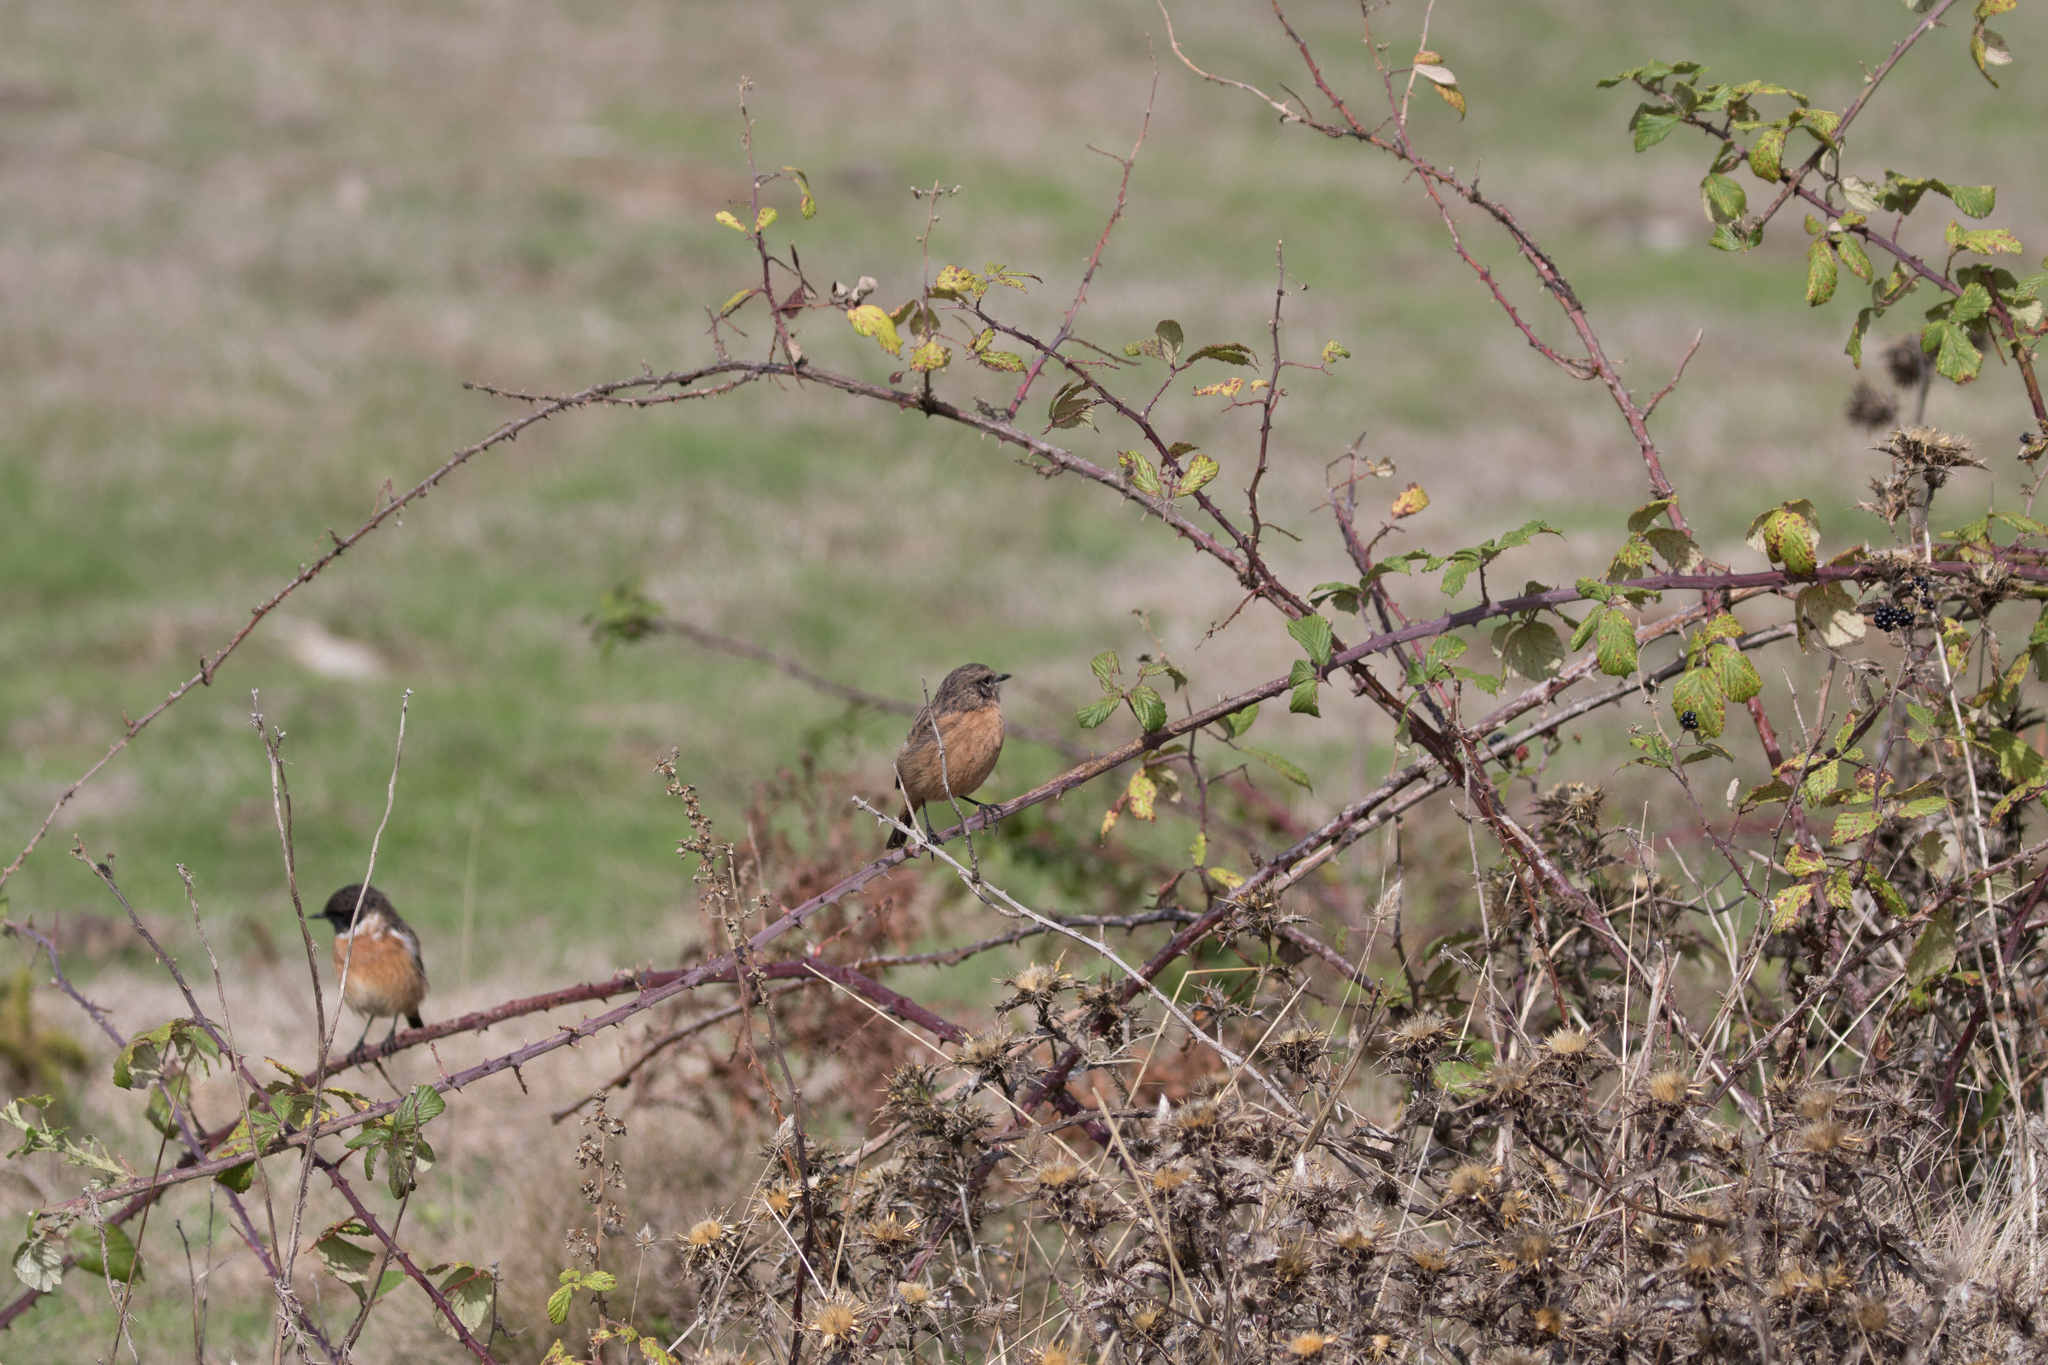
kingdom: Animalia
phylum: Chordata
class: Aves
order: Passeriformes
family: Muscicapidae
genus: Saxicola
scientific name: Saxicola rubicola
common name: European stonechat
